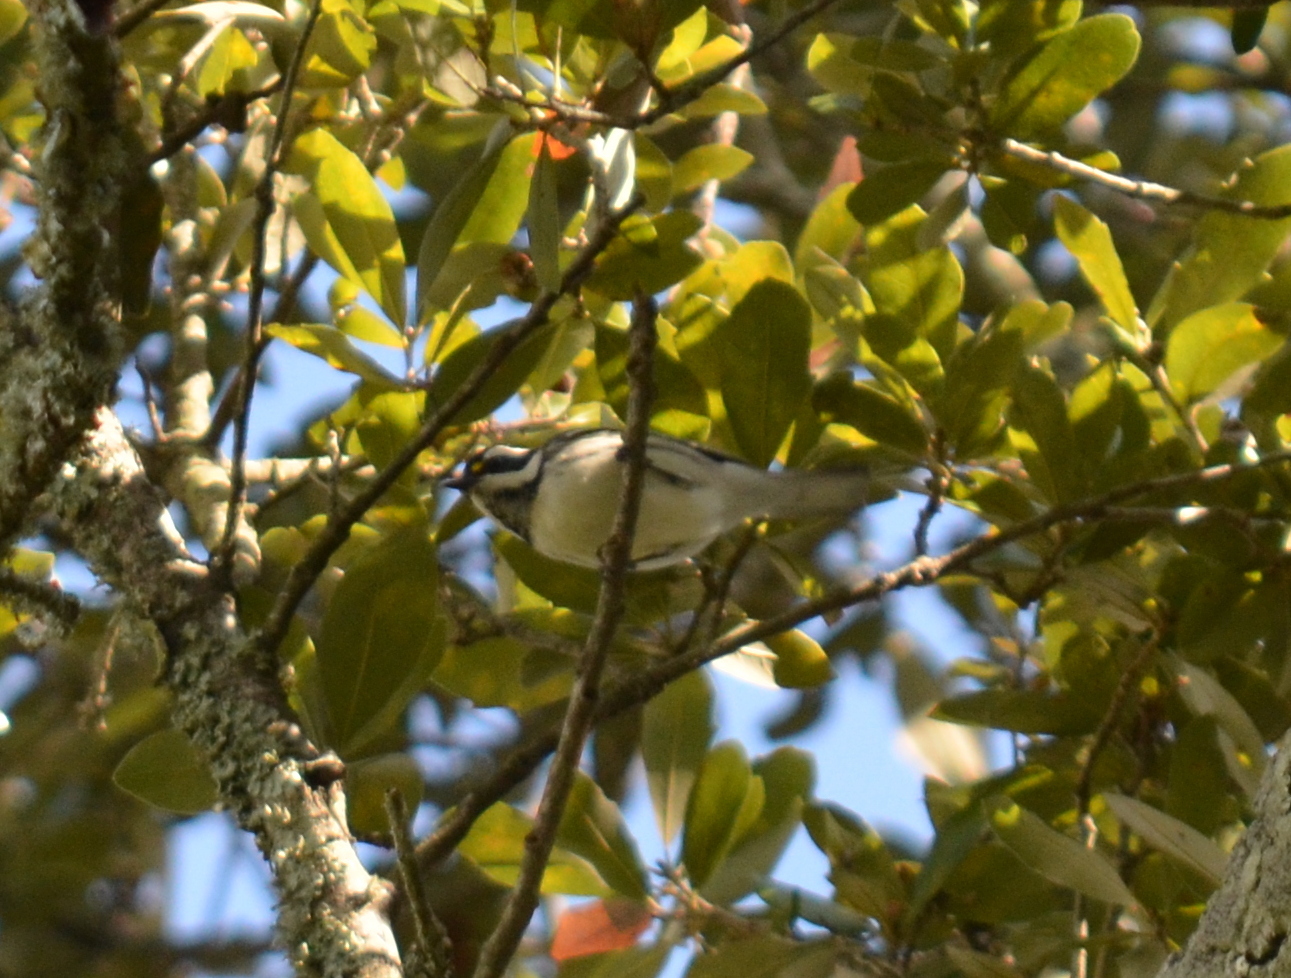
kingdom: Animalia
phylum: Chordata
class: Aves
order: Passeriformes
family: Parulidae
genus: Setophaga
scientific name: Setophaga nigrescens
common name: Black-throated gray warbler
